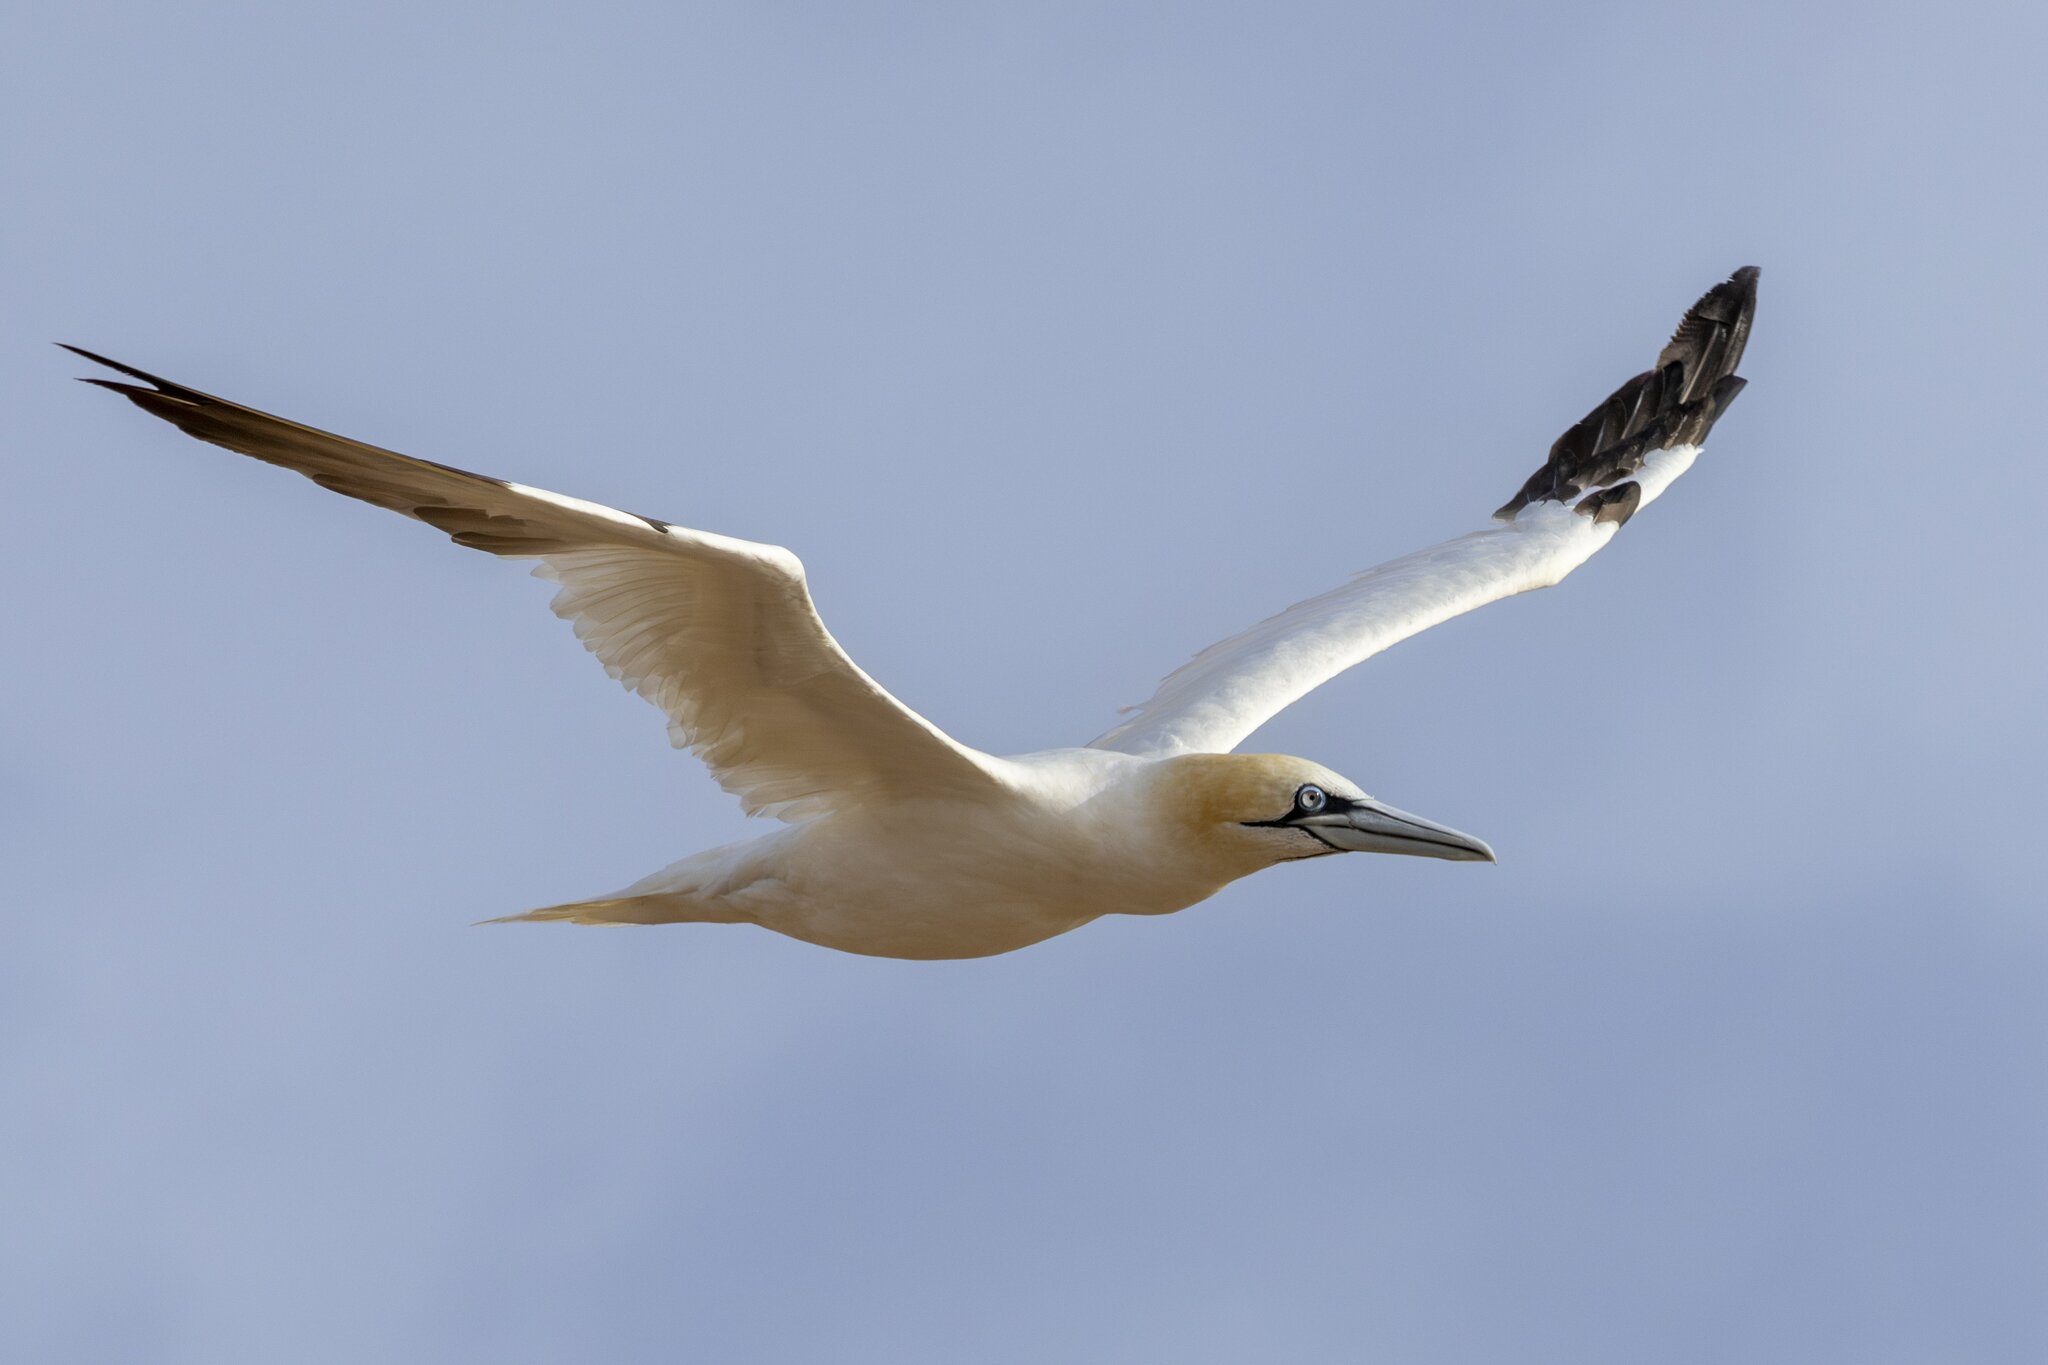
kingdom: Animalia
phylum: Chordata
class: Aves
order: Suliformes
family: Sulidae
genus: Morus
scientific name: Morus bassanus
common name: Northern gannet
